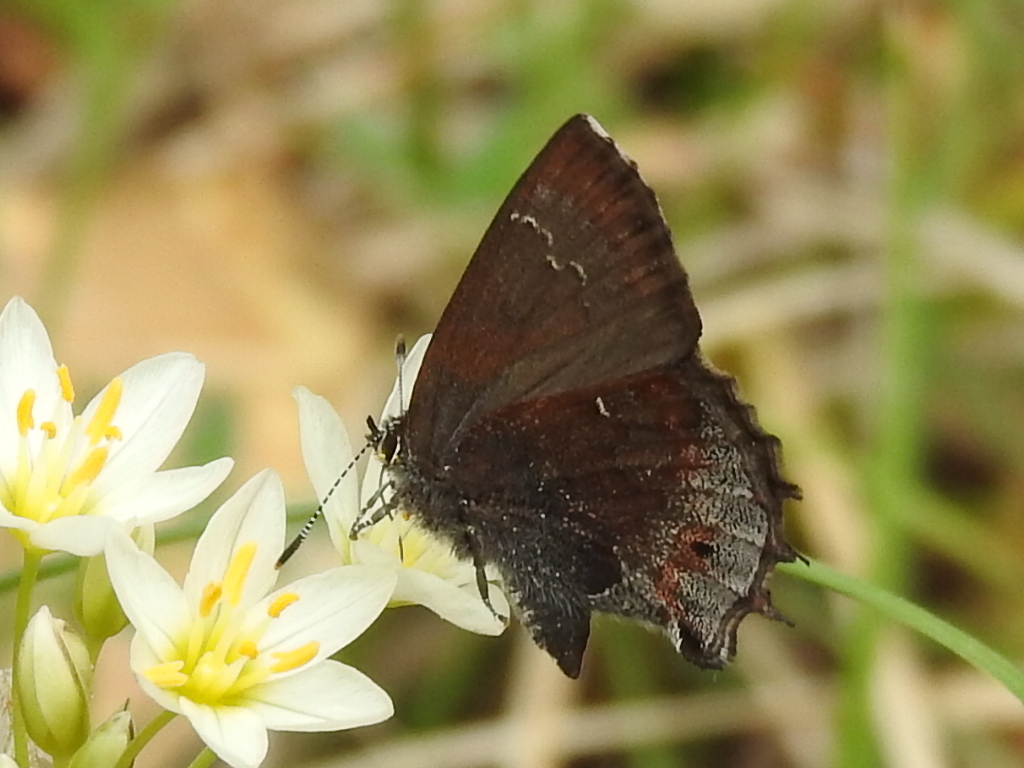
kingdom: Animalia
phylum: Arthropoda
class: Insecta
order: Lepidoptera
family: Lycaenidae
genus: Thecla
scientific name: Thecla irus
